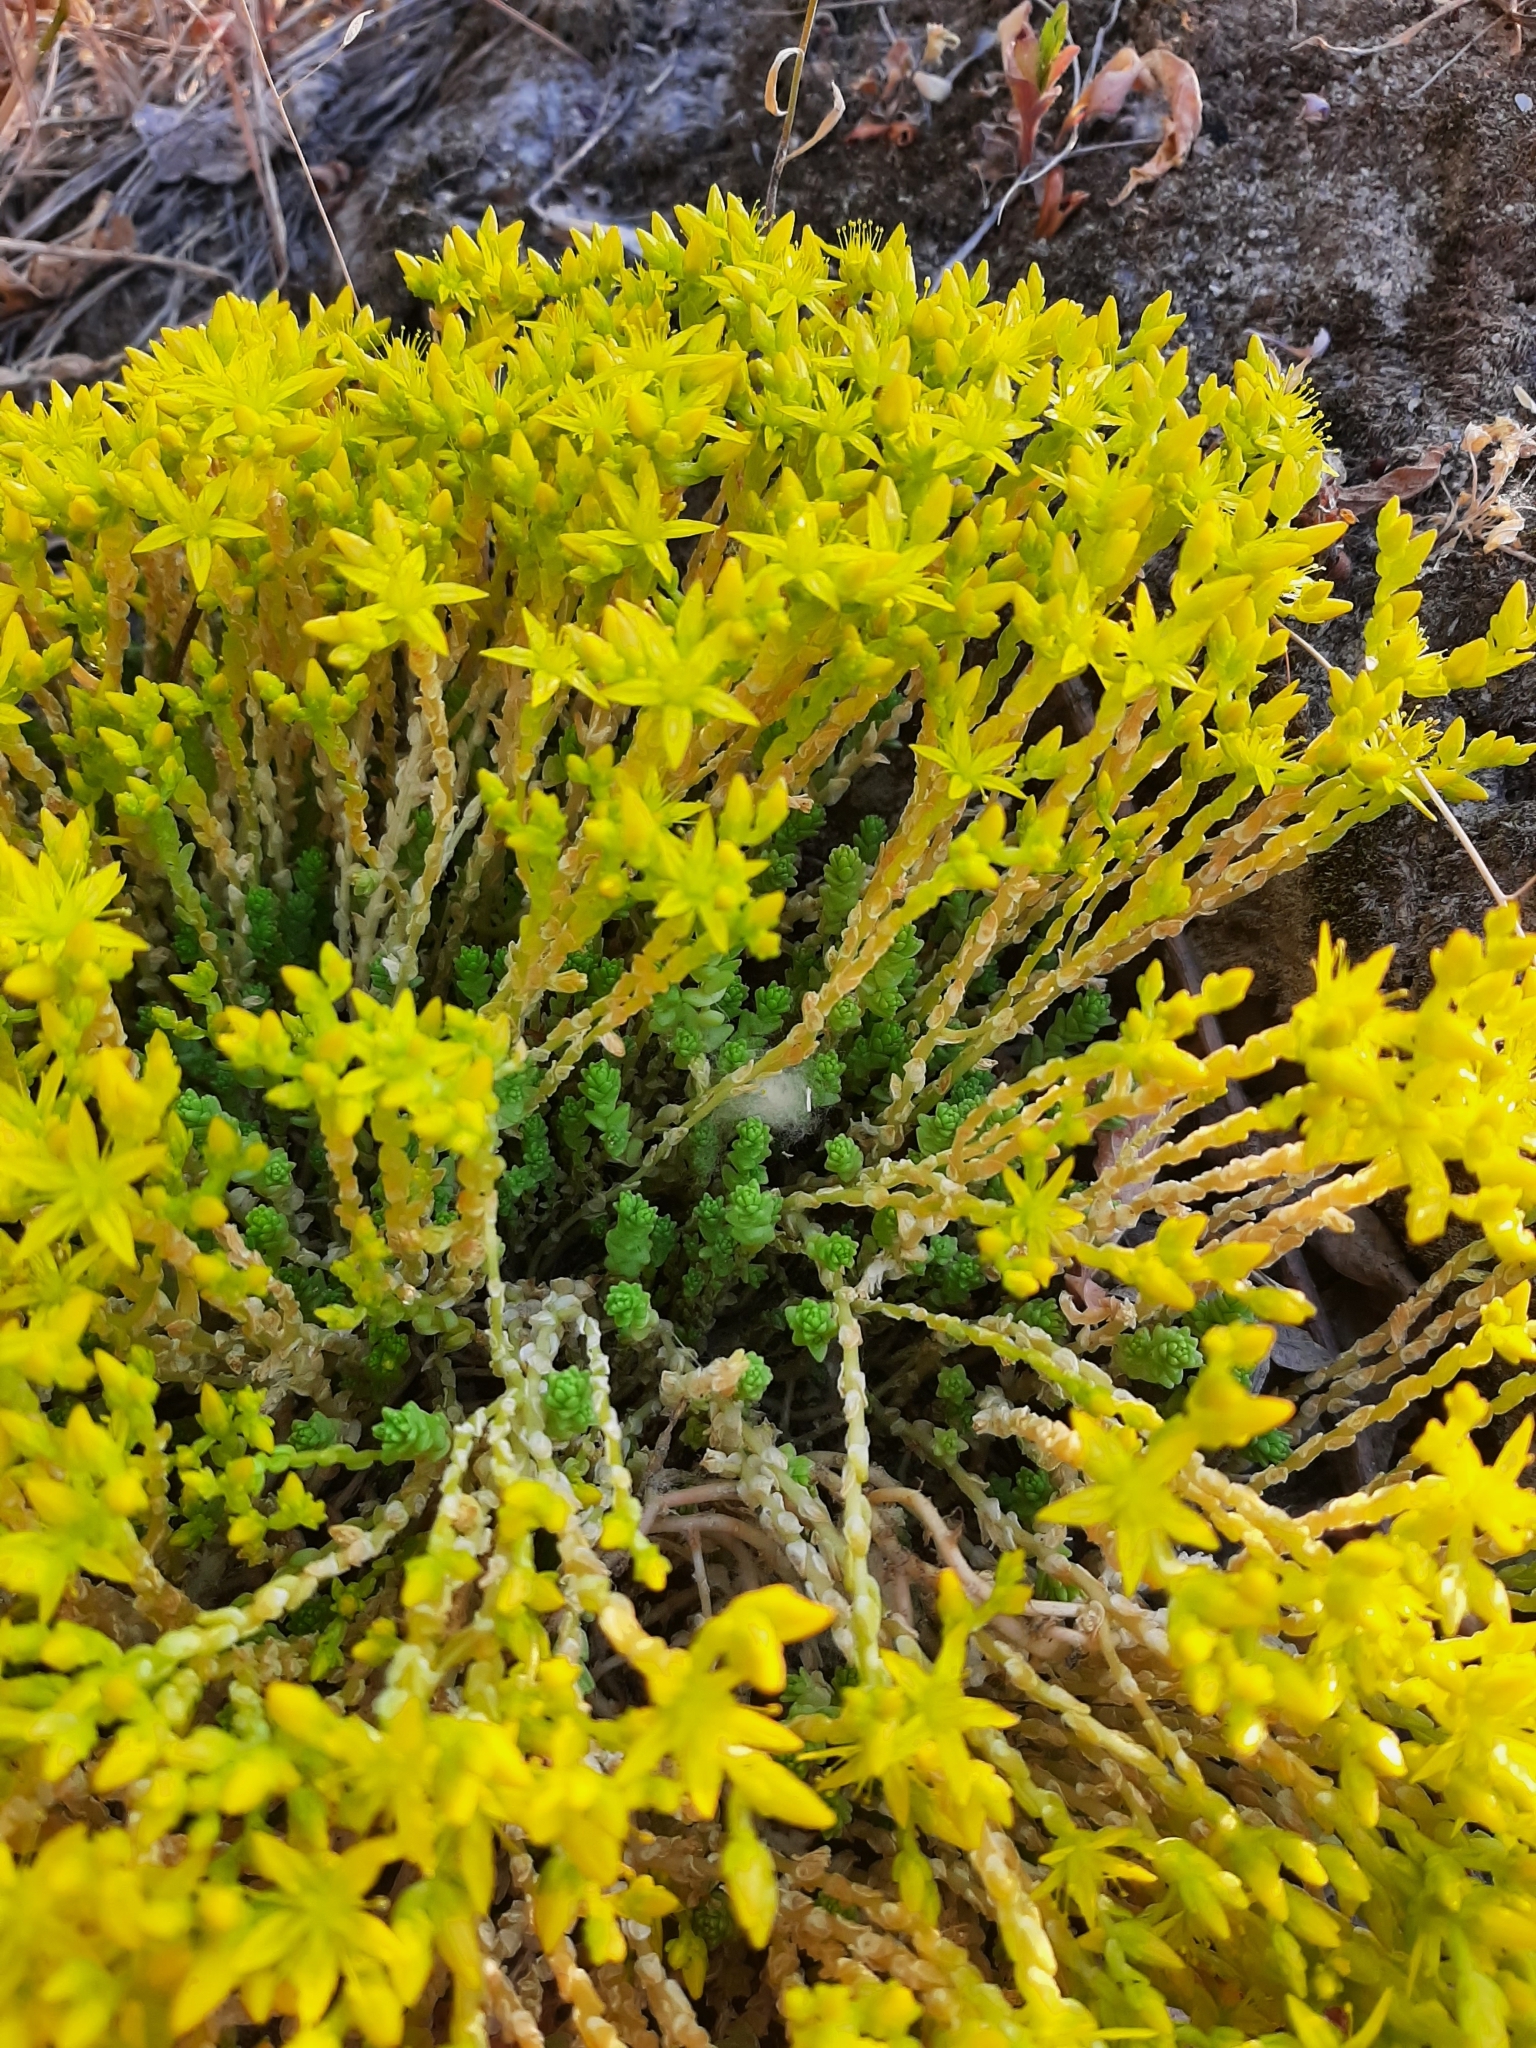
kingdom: Plantae
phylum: Tracheophyta
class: Magnoliopsida
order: Saxifragales
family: Crassulaceae
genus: Sedum
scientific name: Sedum acre
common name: Biting stonecrop
